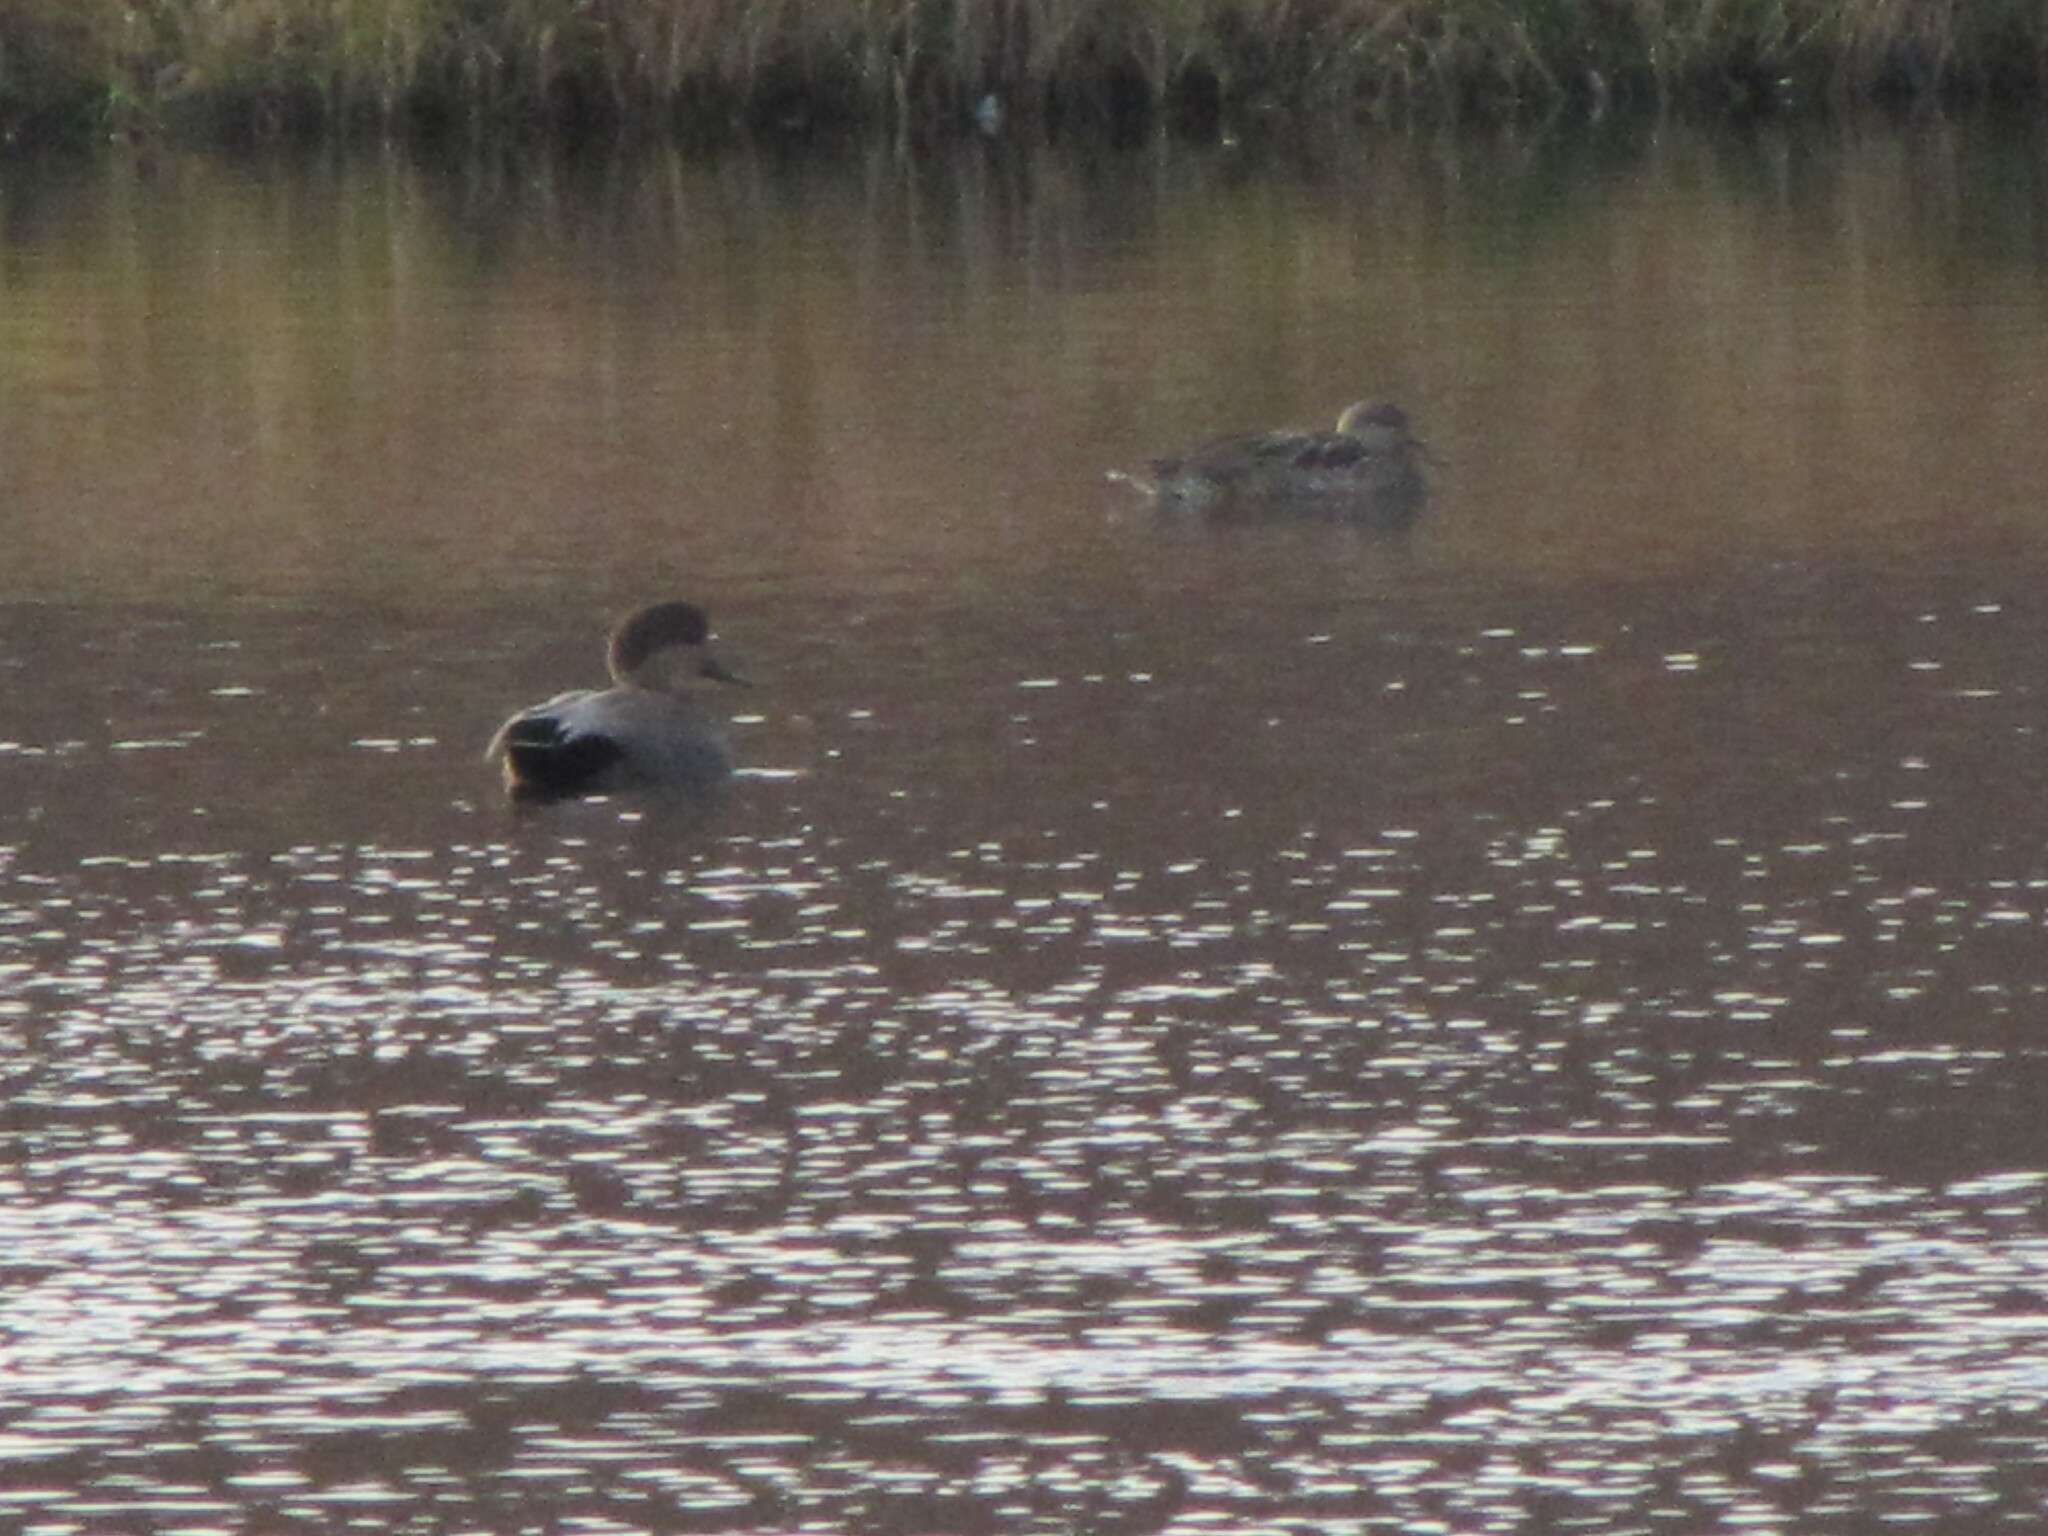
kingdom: Animalia
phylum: Chordata
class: Aves
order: Anseriformes
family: Anatidae
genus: Mareca
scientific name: Mareca strepera
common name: Gadwall
